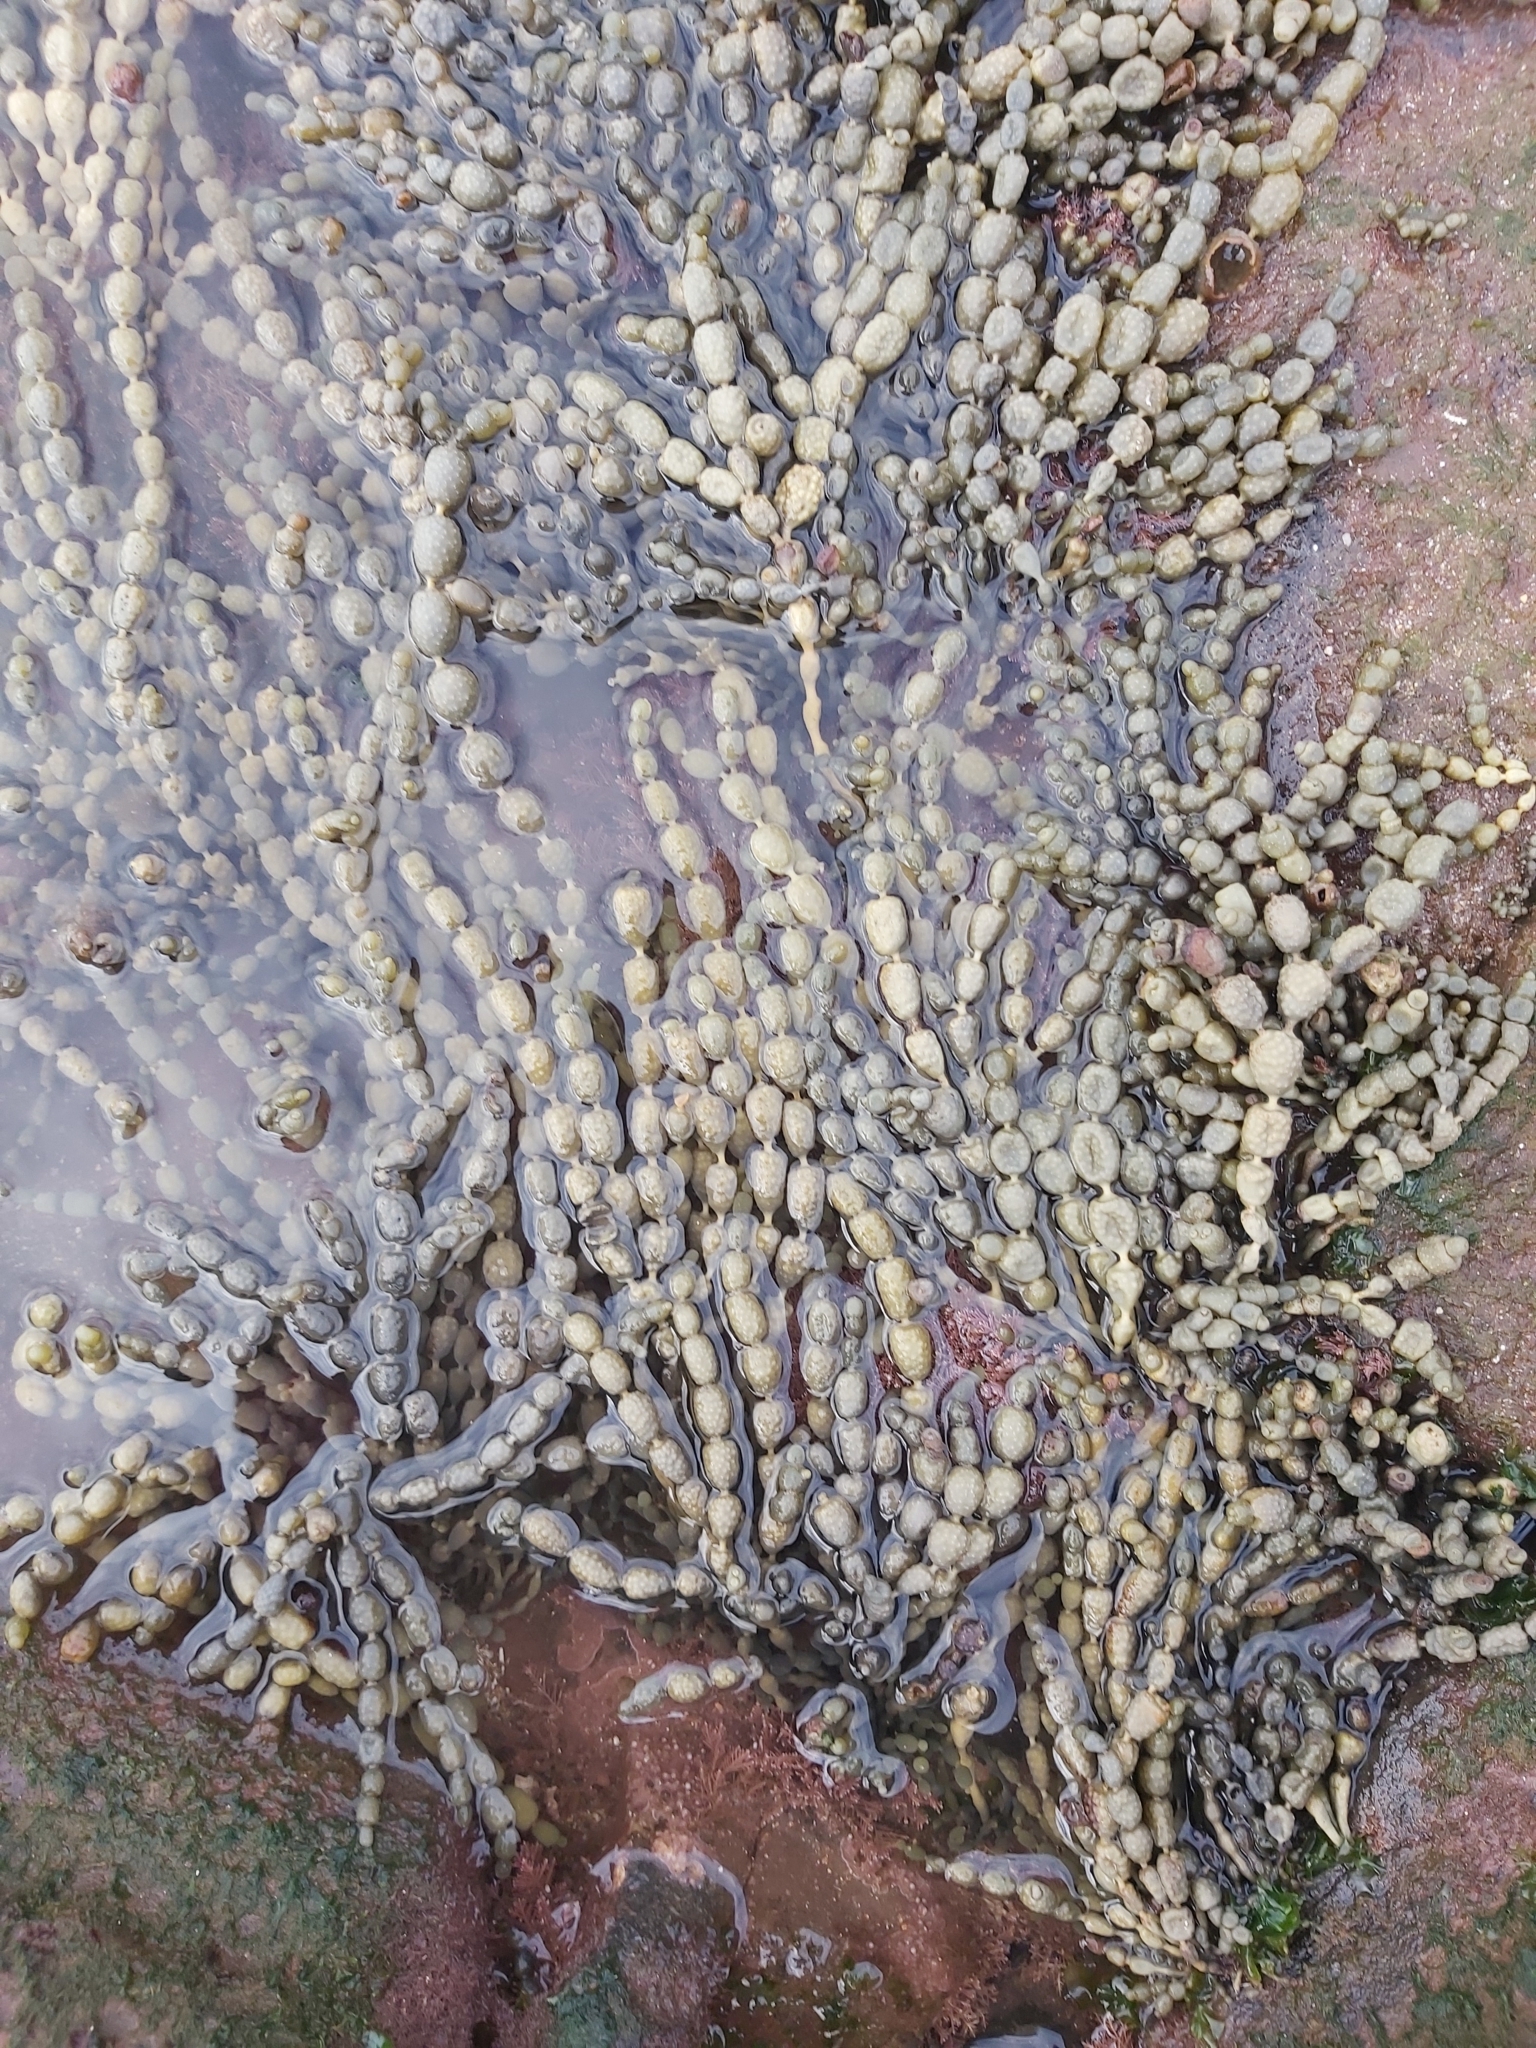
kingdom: Chromista
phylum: Ochrophyta
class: Phaeophyceae
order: Fucales
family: Hormosiraceae
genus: Hormosira
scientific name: Hormosira banksii
